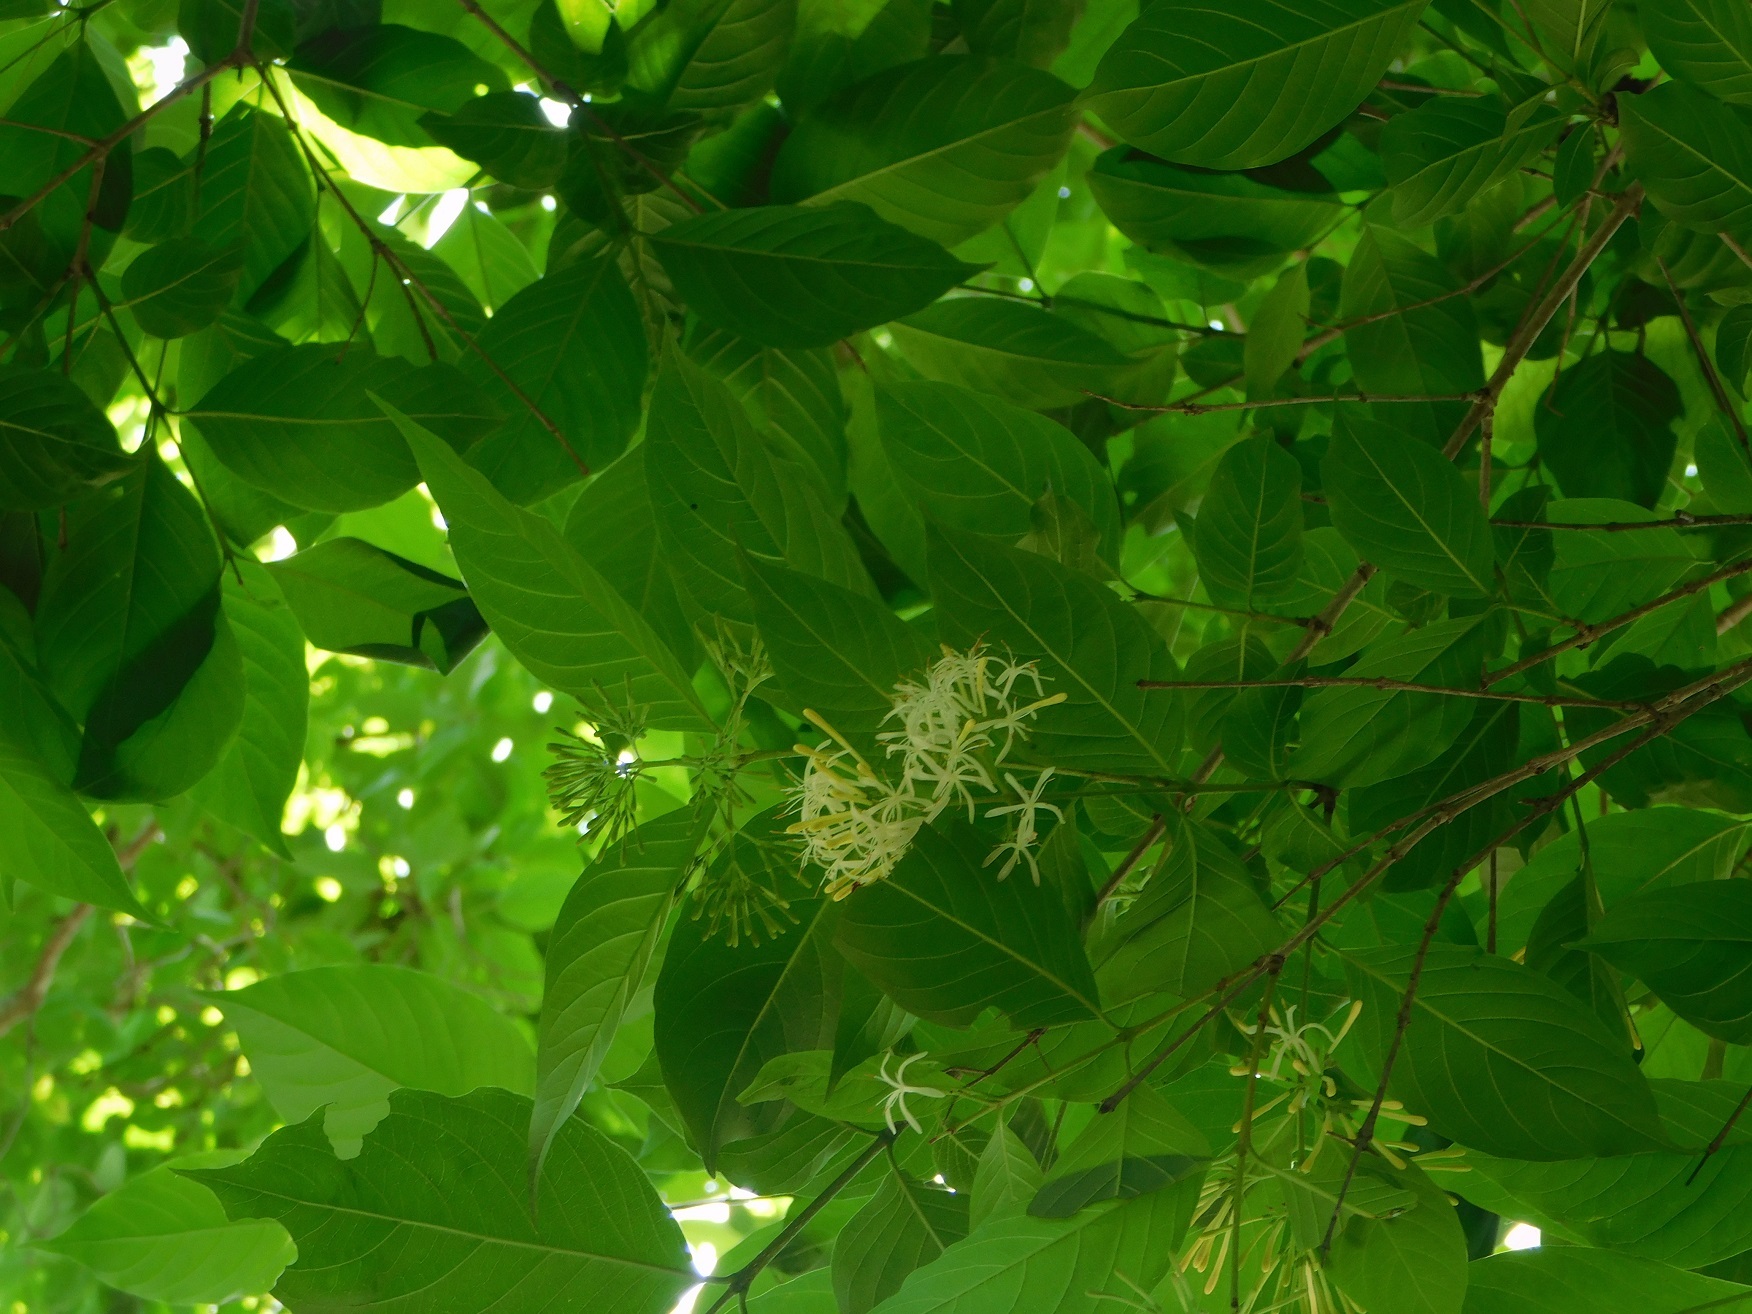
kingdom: Plantae
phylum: Tracheophyta
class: Magnoliopsida
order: Gentianales
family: Rubiaceae
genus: Solenandra
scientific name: Solenandra mexicana
